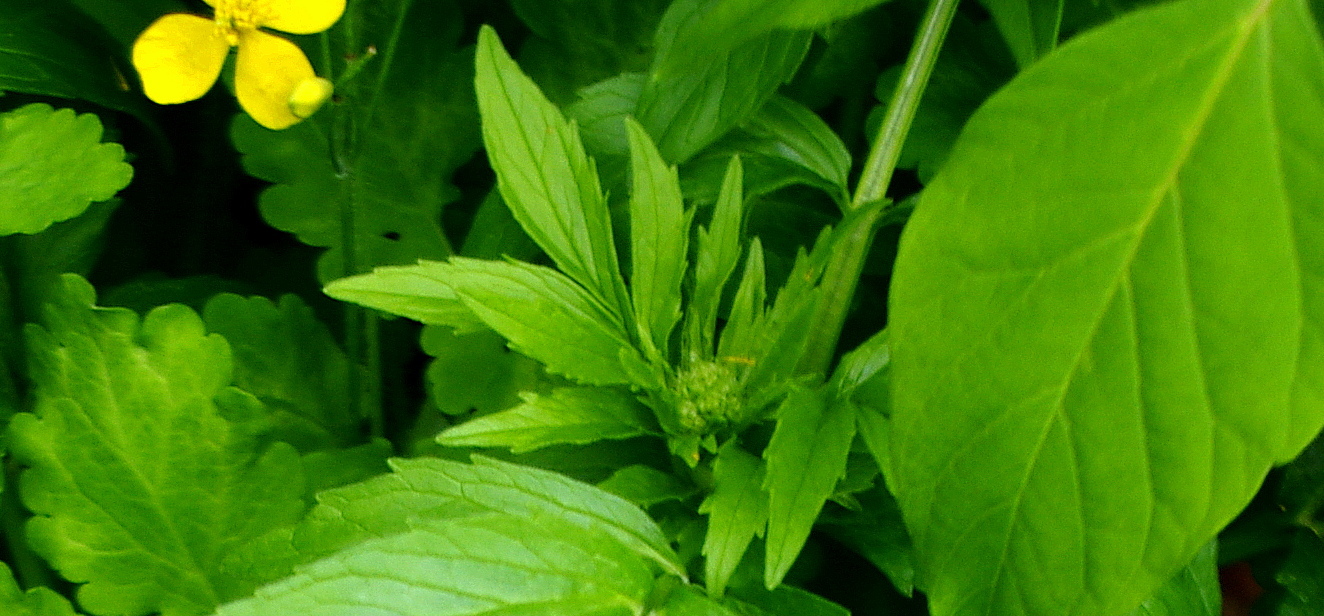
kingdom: Plantae
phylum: Tracheophyta
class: Magnoliopsida
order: Dipsacales
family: Caprifoliaceae
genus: Valeriana
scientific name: Valeriana officinalis
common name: Common valerian
